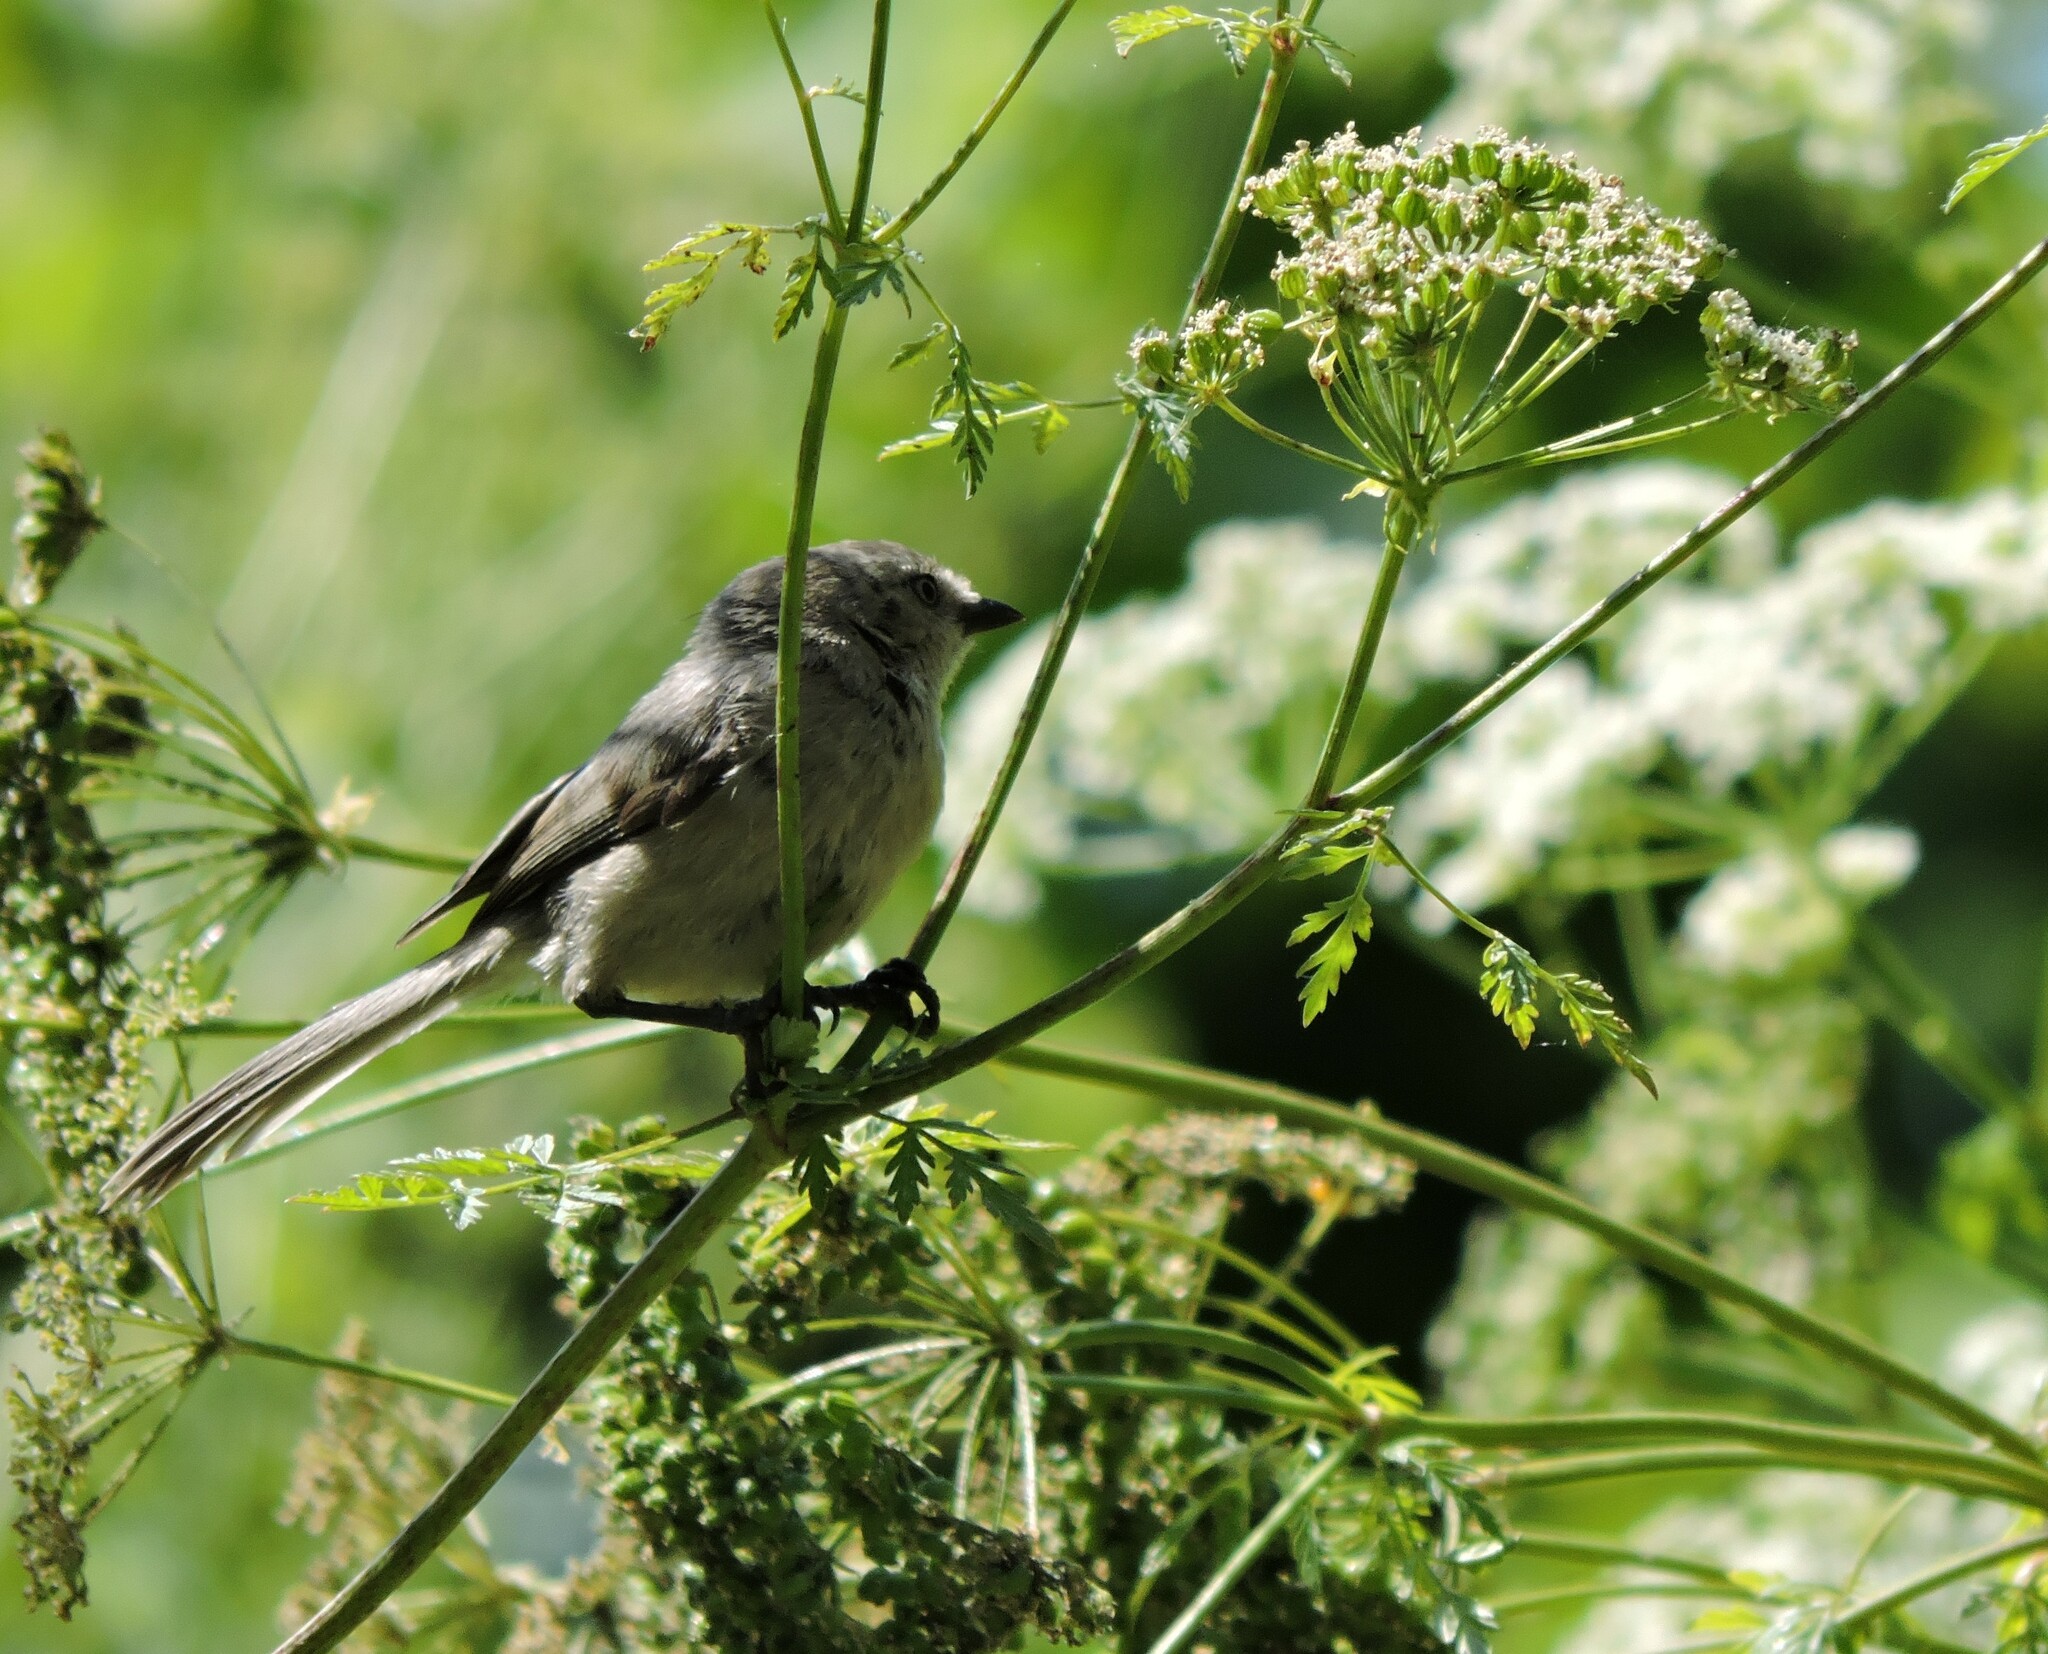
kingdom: Animalia
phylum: Chordata
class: Aves
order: Passeriformes
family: Aegithalidae
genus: Psaltriparus
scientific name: Psaltriparus minimus
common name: American bushtit
